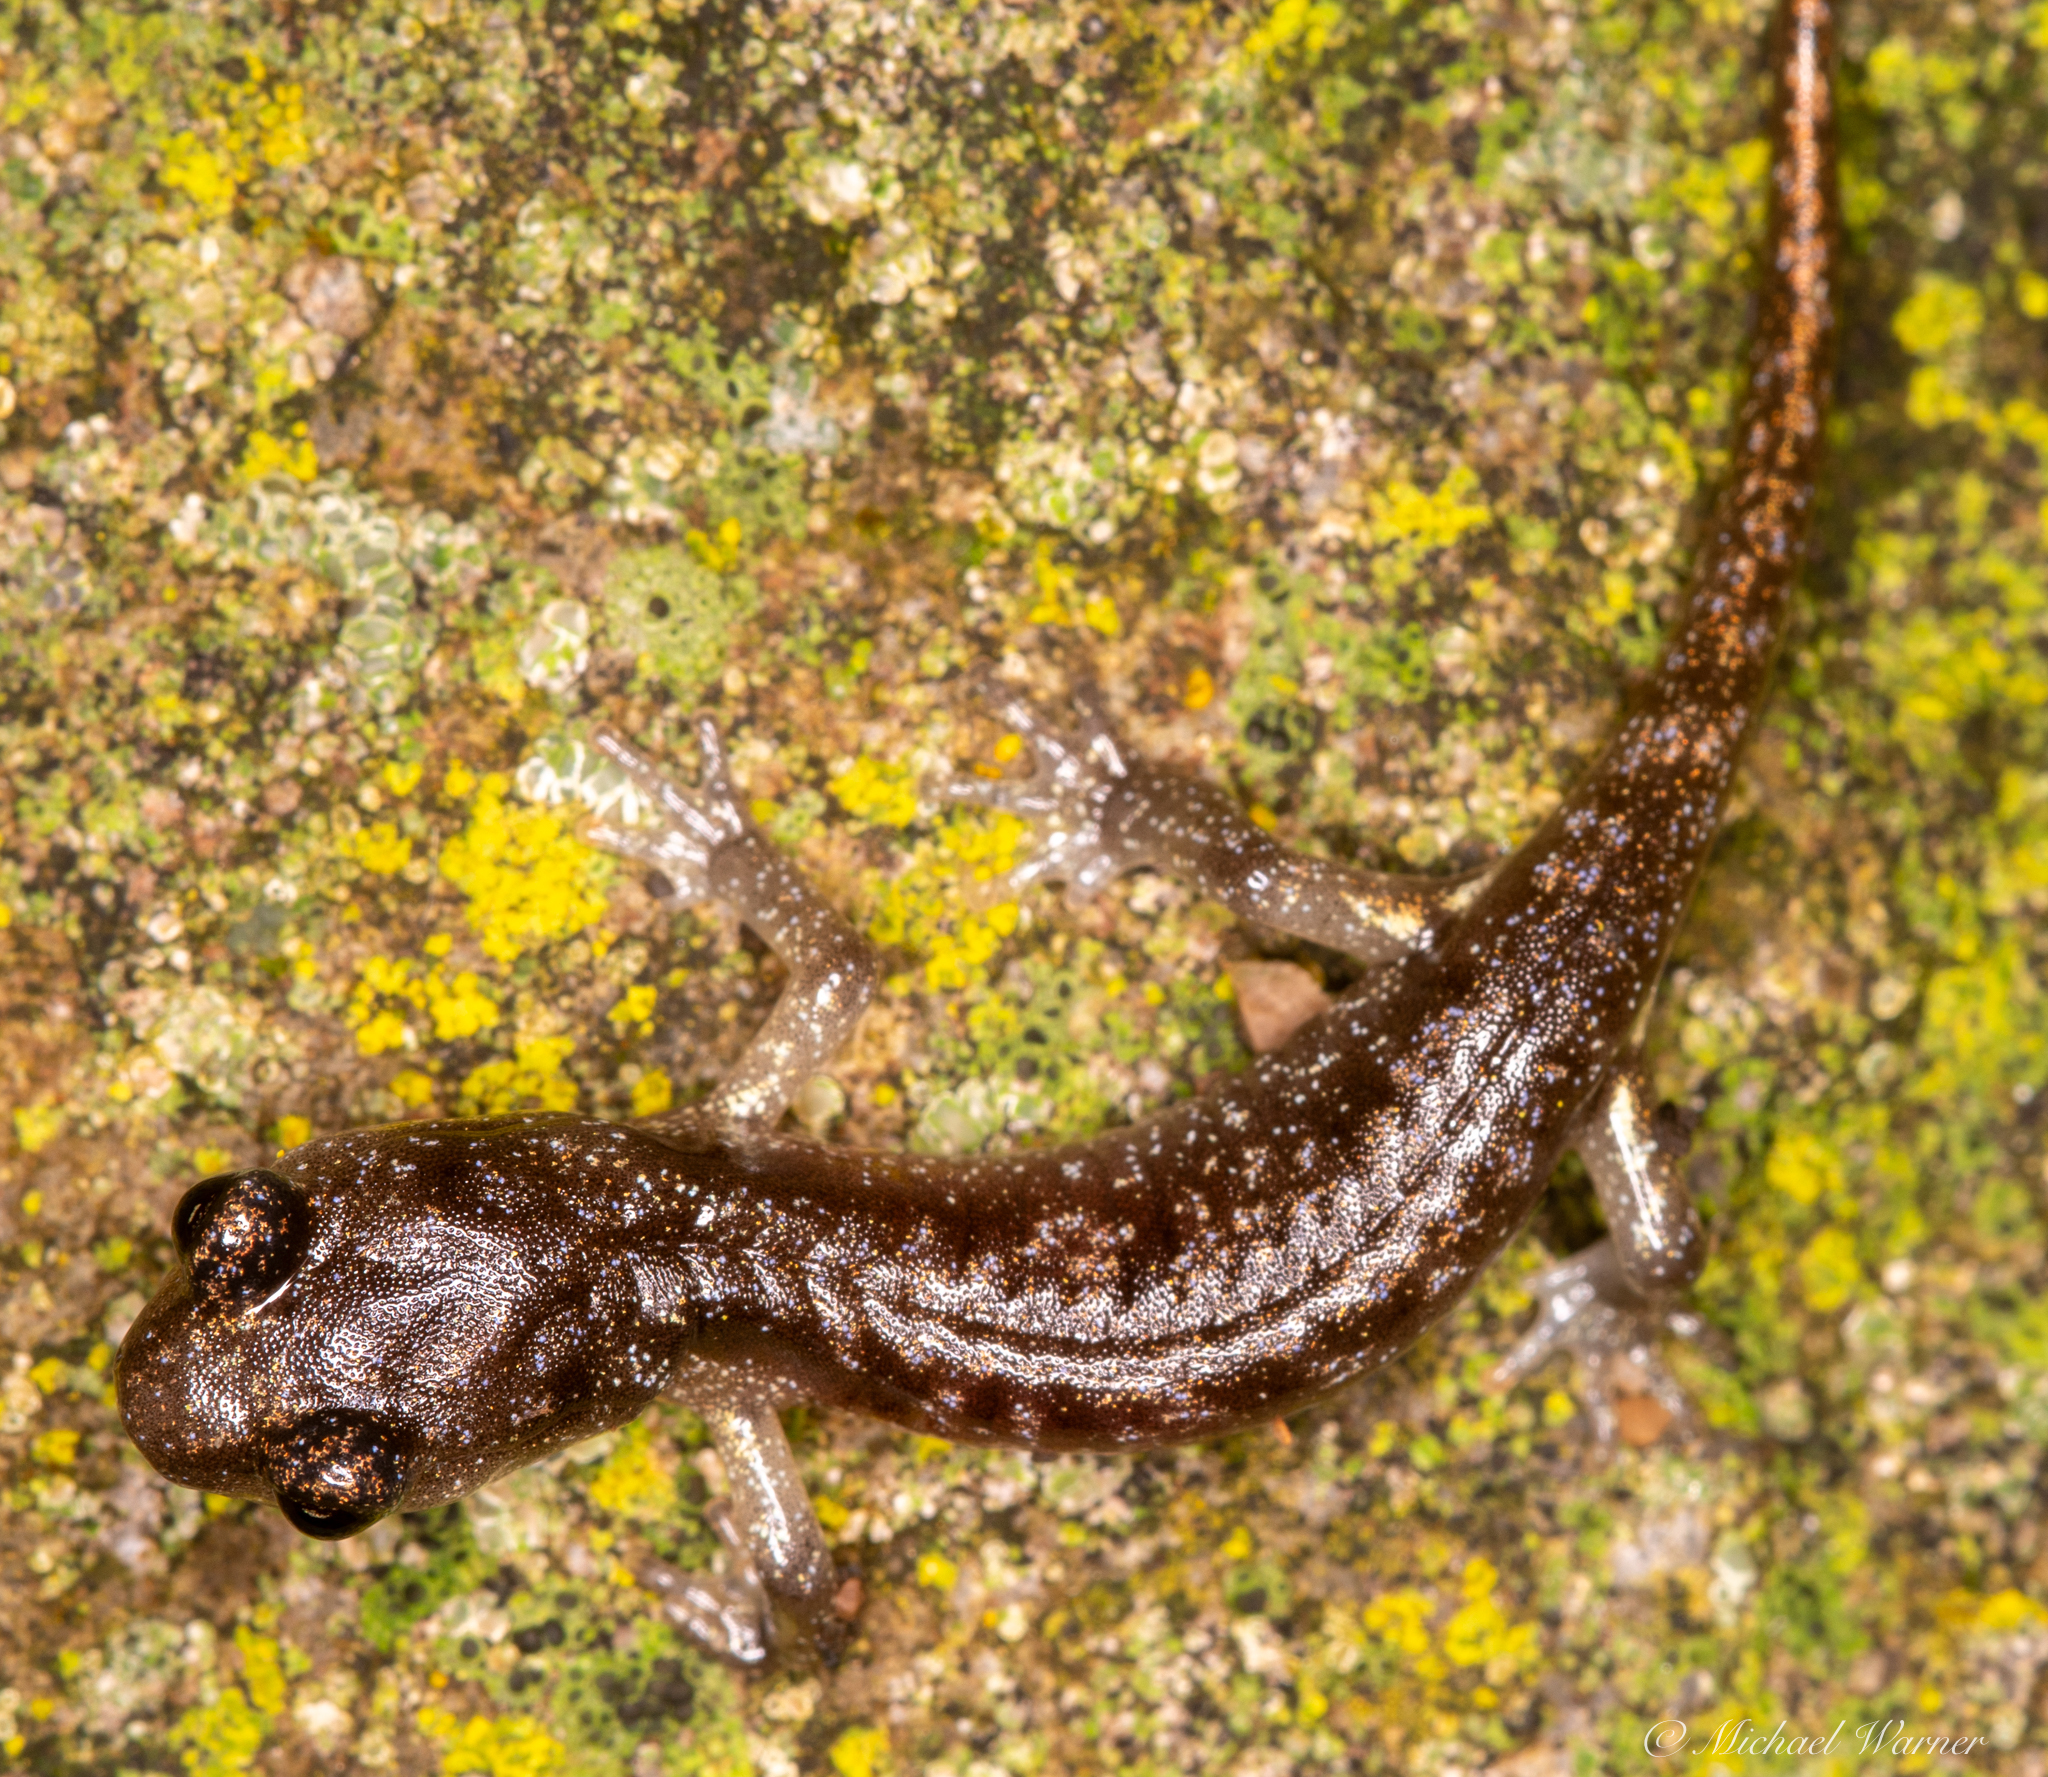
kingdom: Animalia
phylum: Chordata
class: Amphibia
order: Caudata
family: Plethodontidae
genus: Aneides
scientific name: Aneides lugubris
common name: Arboreal salamander
